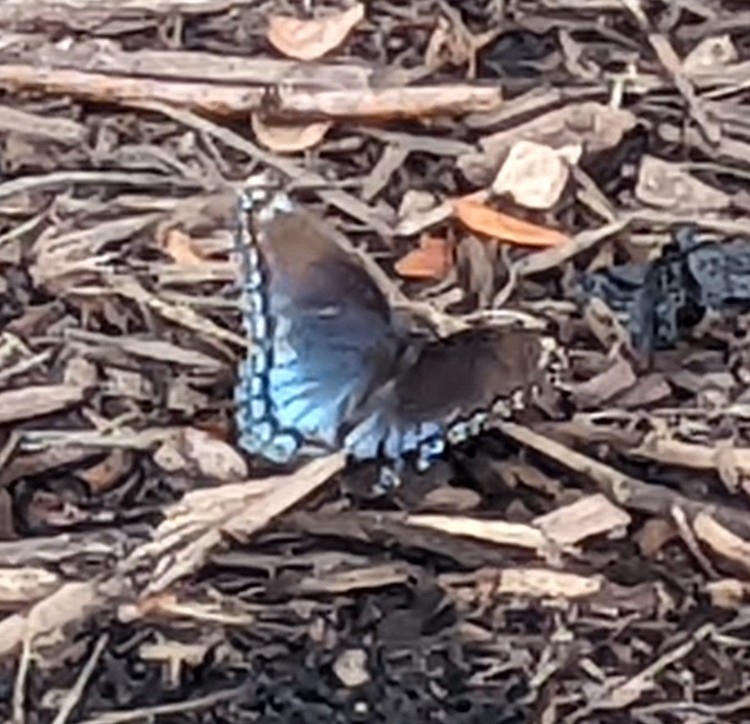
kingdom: Animalia
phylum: Arthropoda
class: Insecta
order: Lepidoptera
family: Nymphalidae
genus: Limenitis
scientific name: Limenitis astyanax
